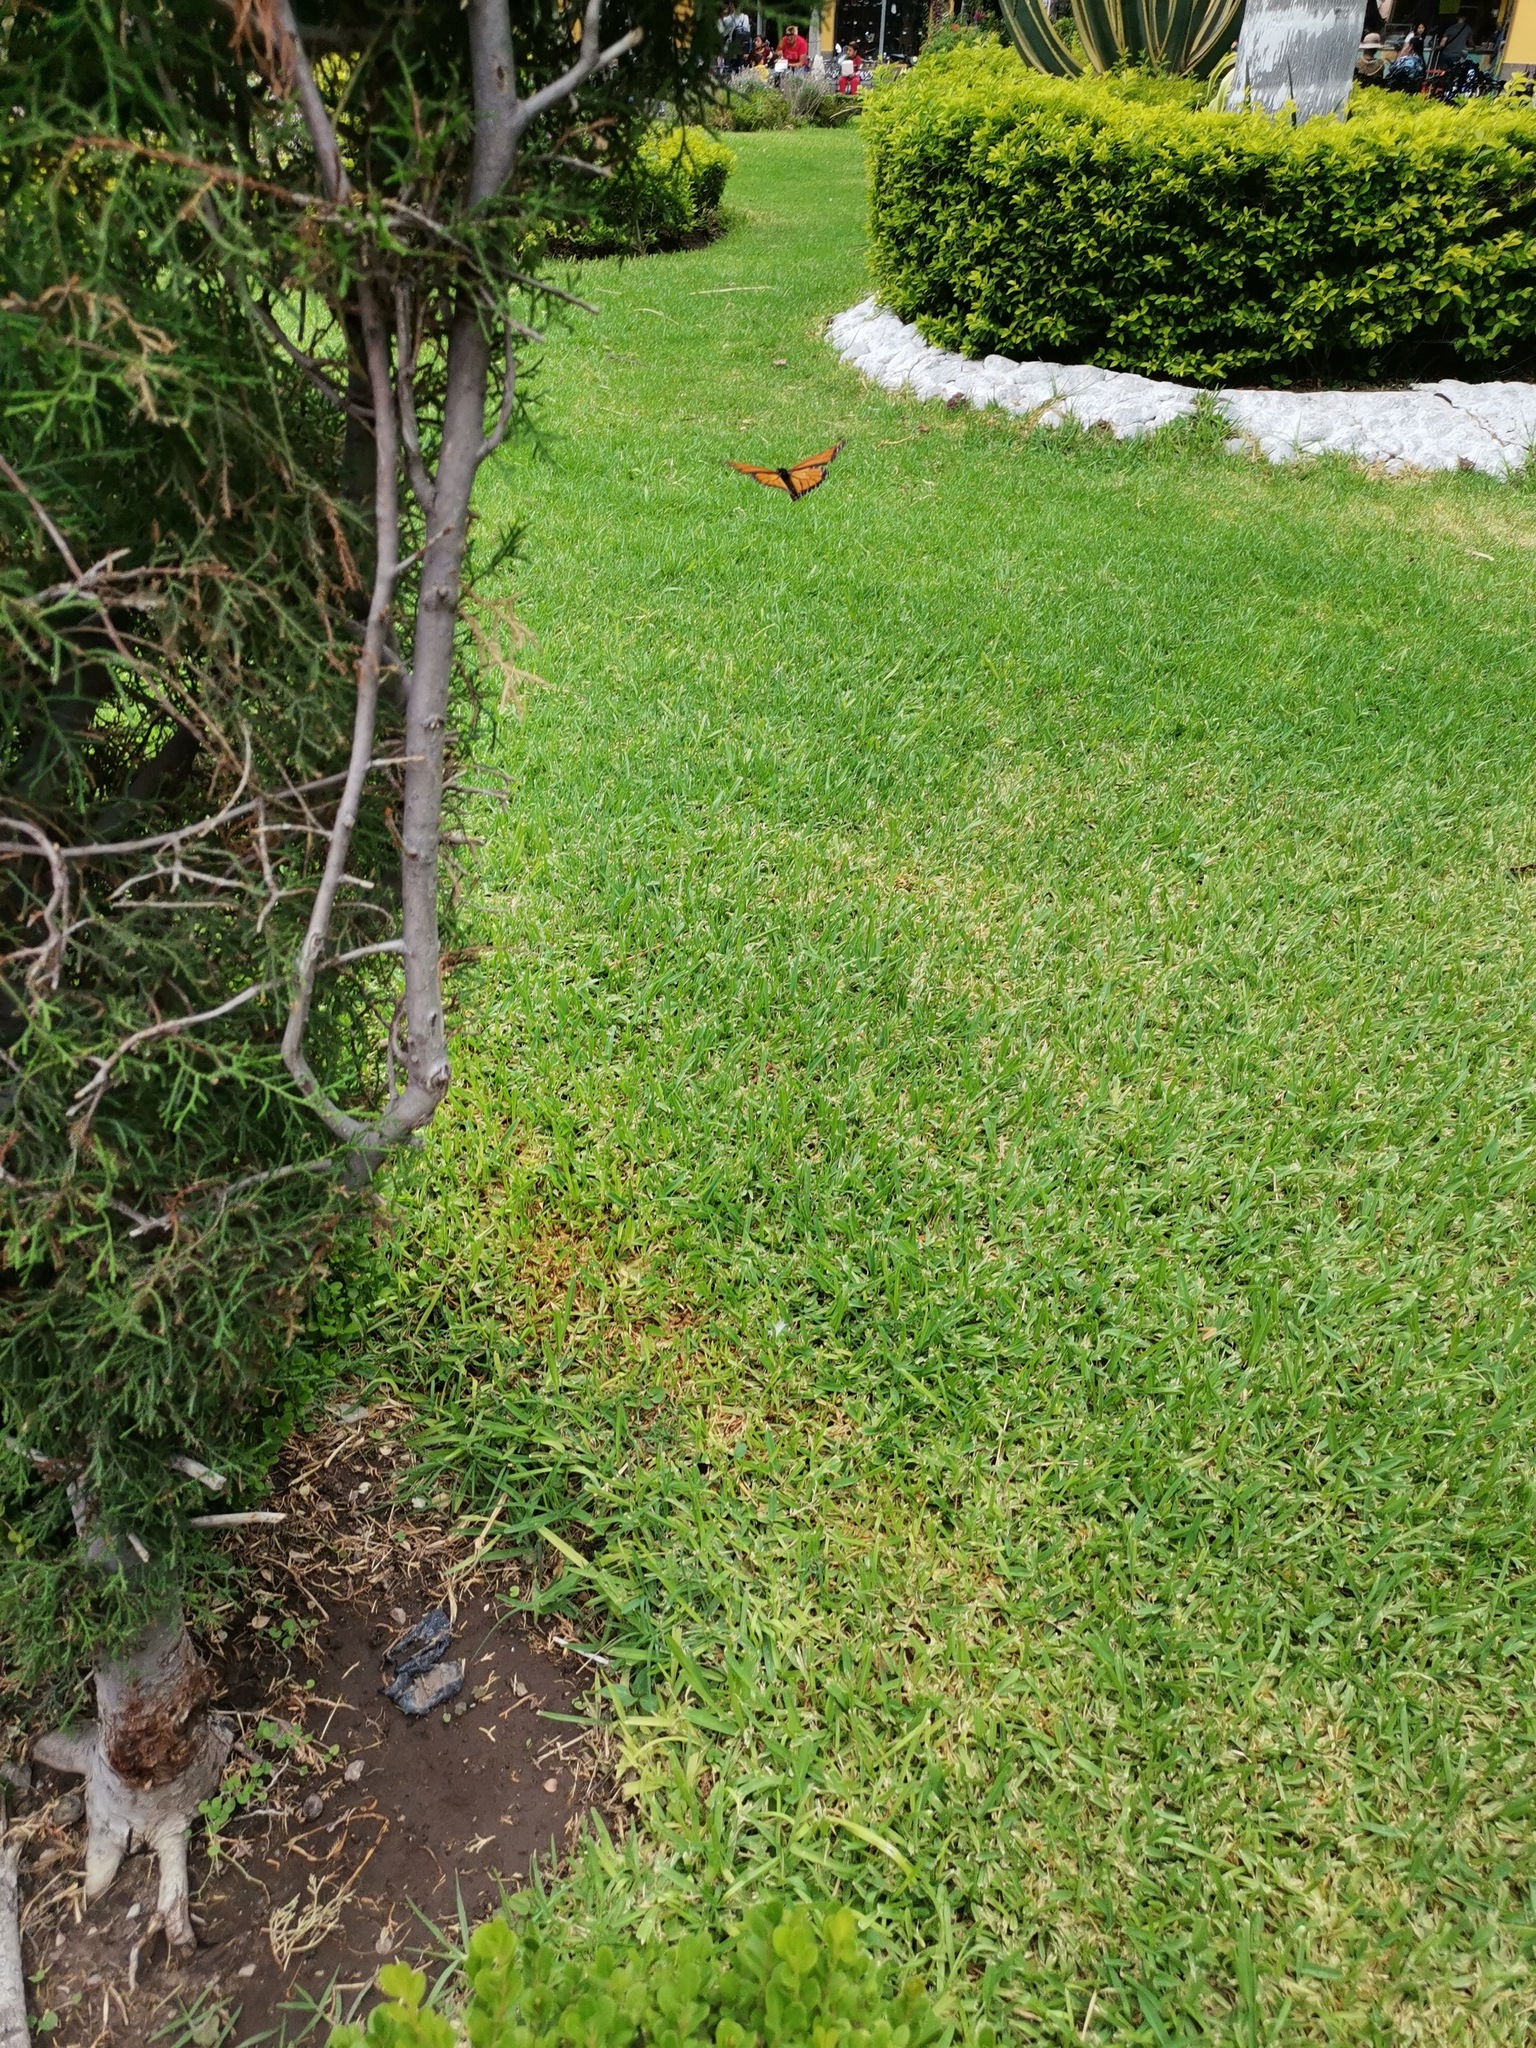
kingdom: Animalia
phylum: Arthropoda
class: Insecta
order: Lepidoptera
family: Nymphalidae
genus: Danaus
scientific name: Danaus plexippus
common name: Monarch
